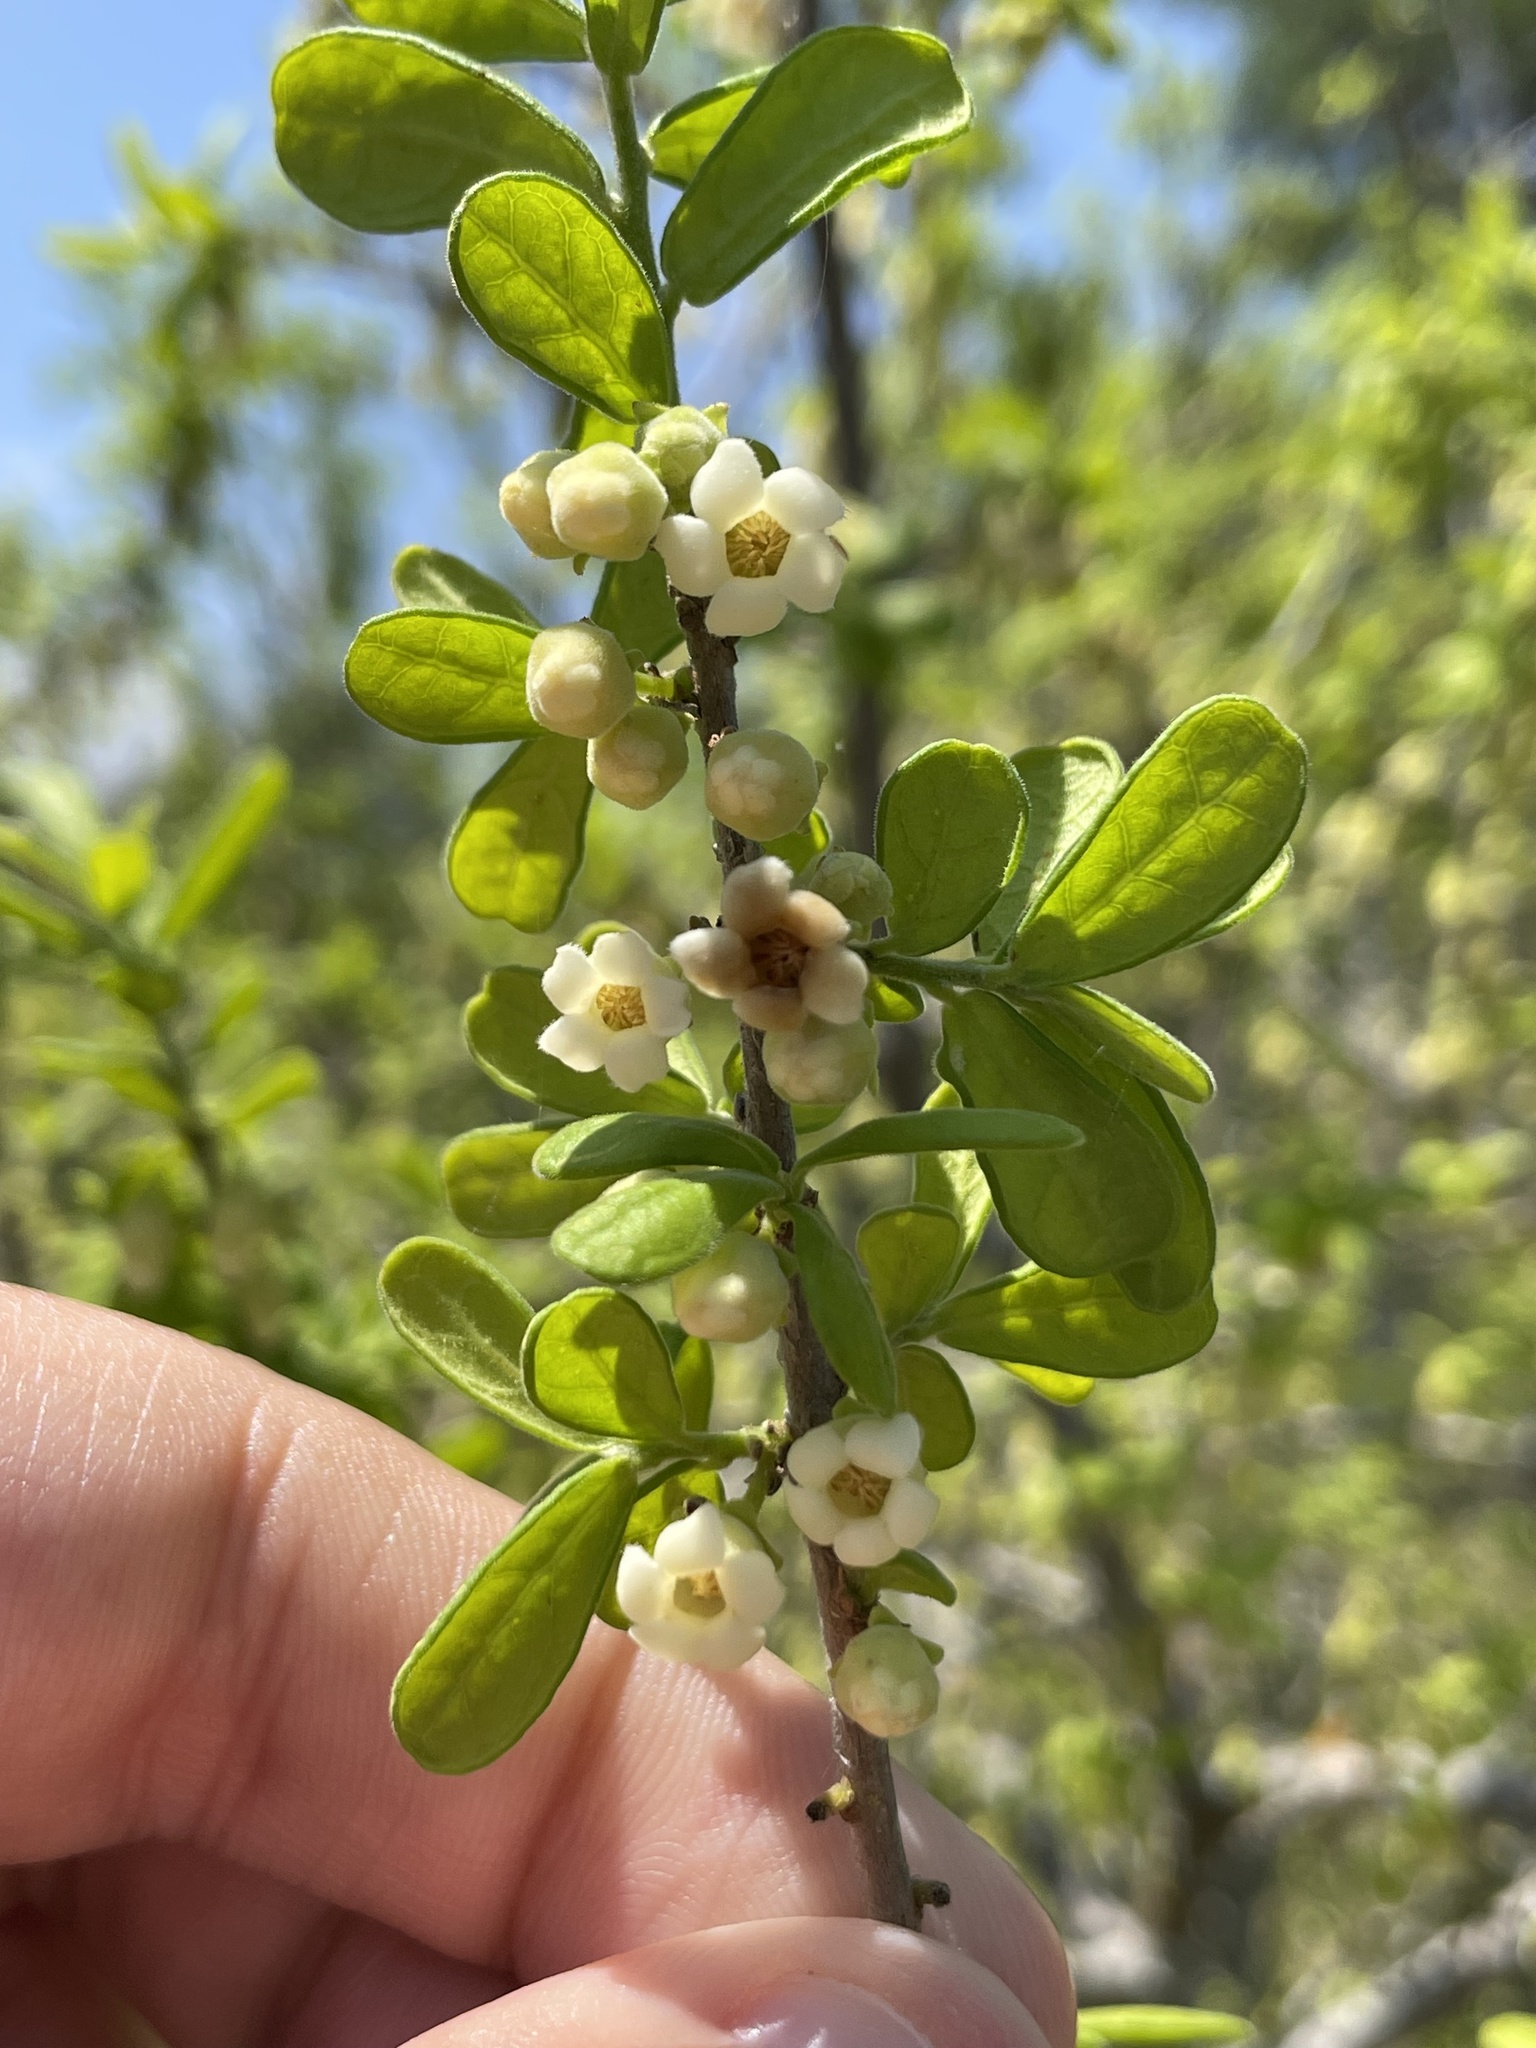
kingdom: Plantae
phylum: Tracheophyta
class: Magnoliopsida
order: Ericales
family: Ebenaceae
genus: Diospyros
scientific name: Diospyros texana
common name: Texas persimmon
